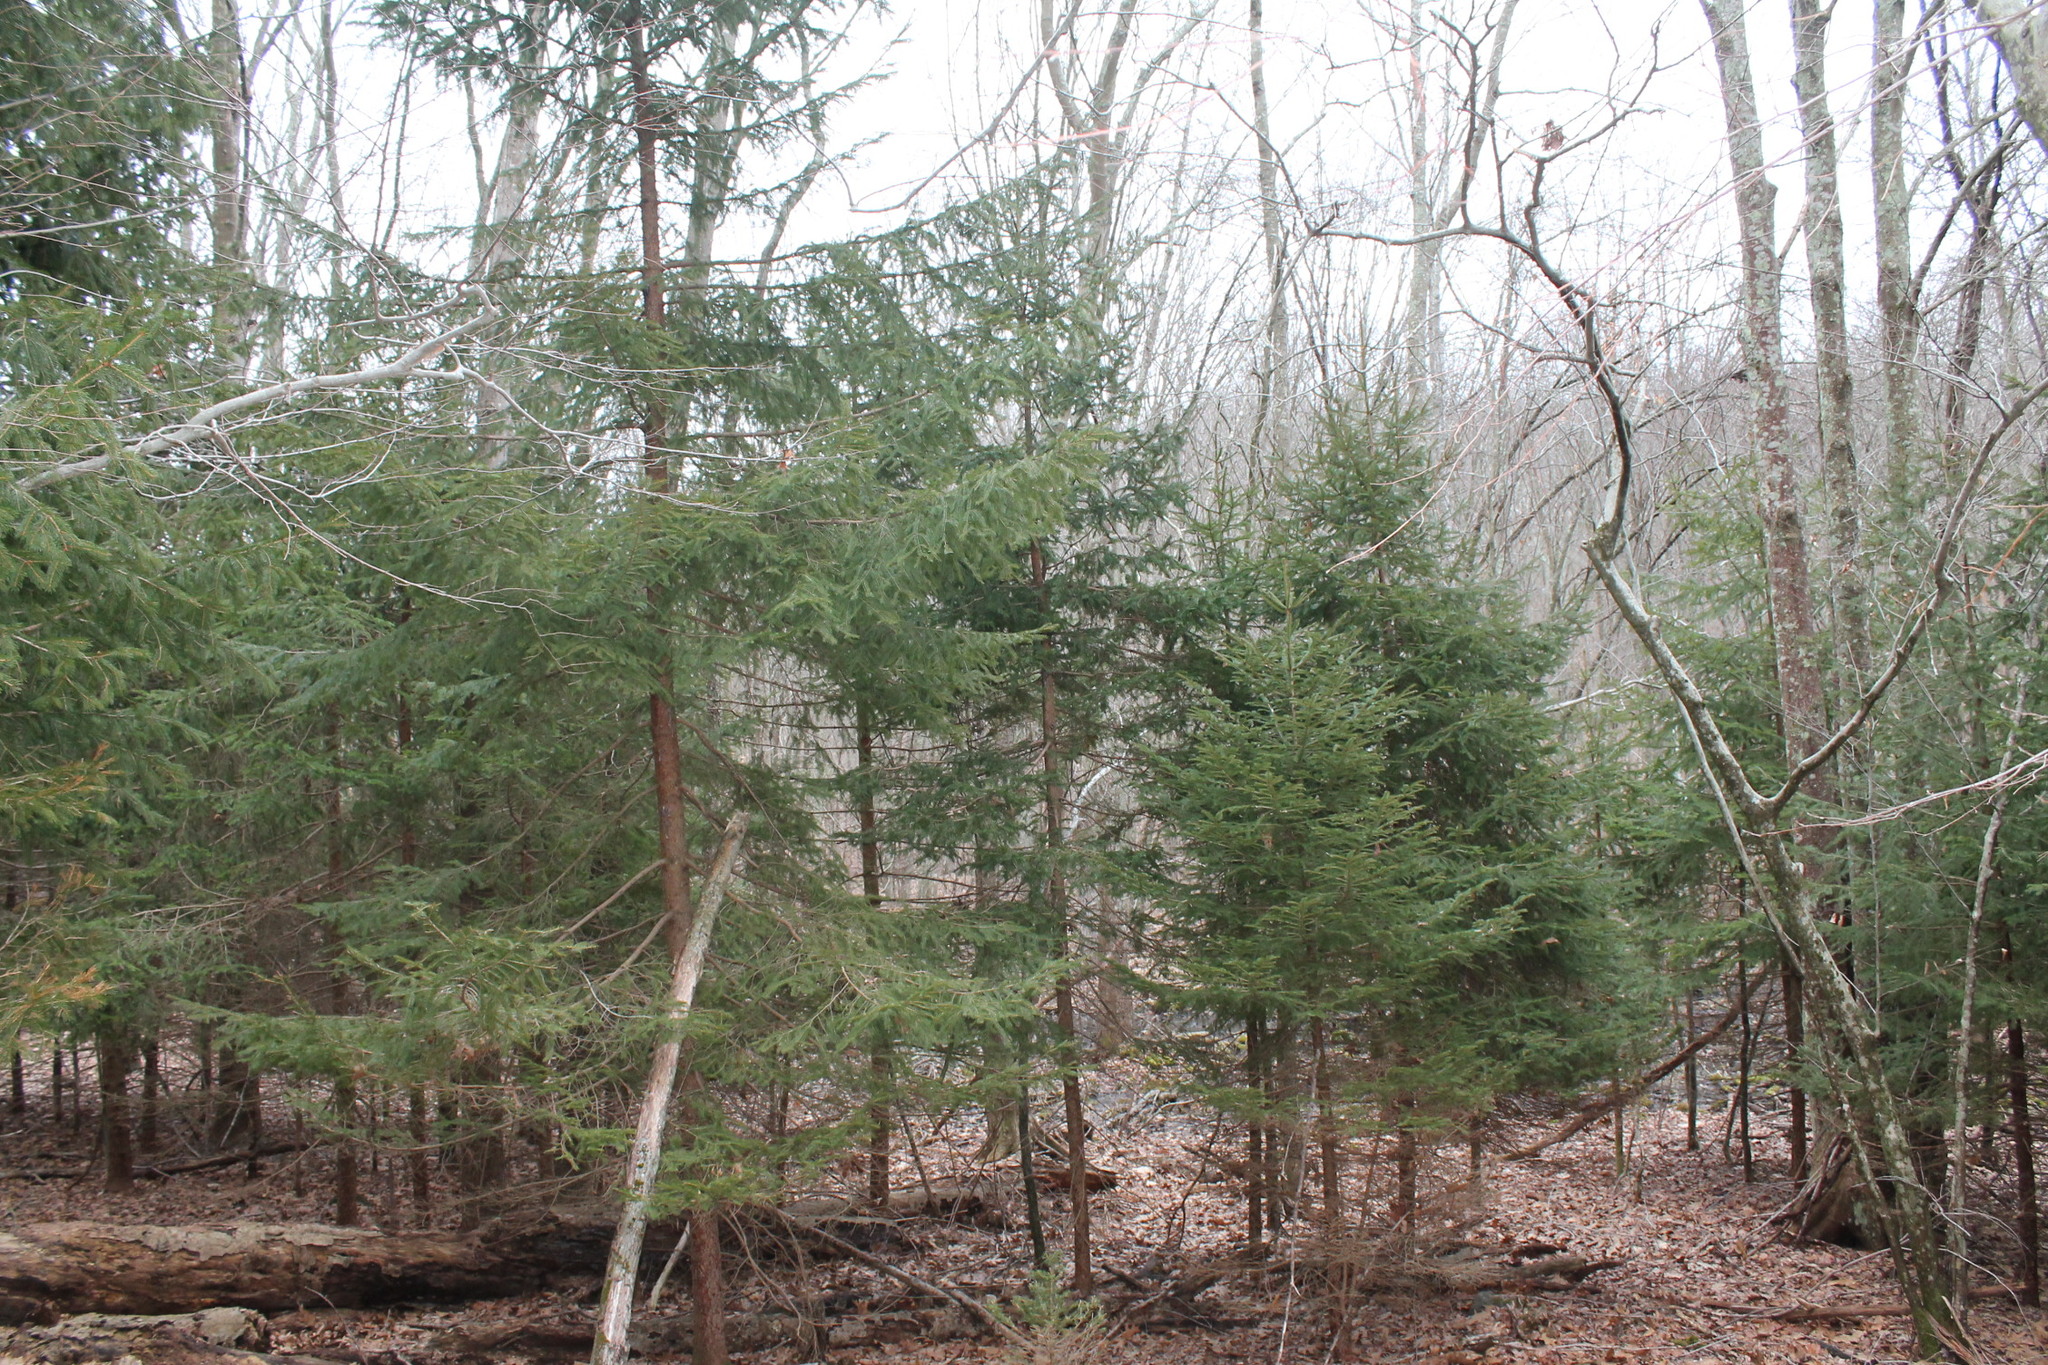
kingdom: Plantae
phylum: Tracheophyta
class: Pinopsida
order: Pinales
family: Pinaceae
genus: Picea
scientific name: Picea abies
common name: Norway spruce
